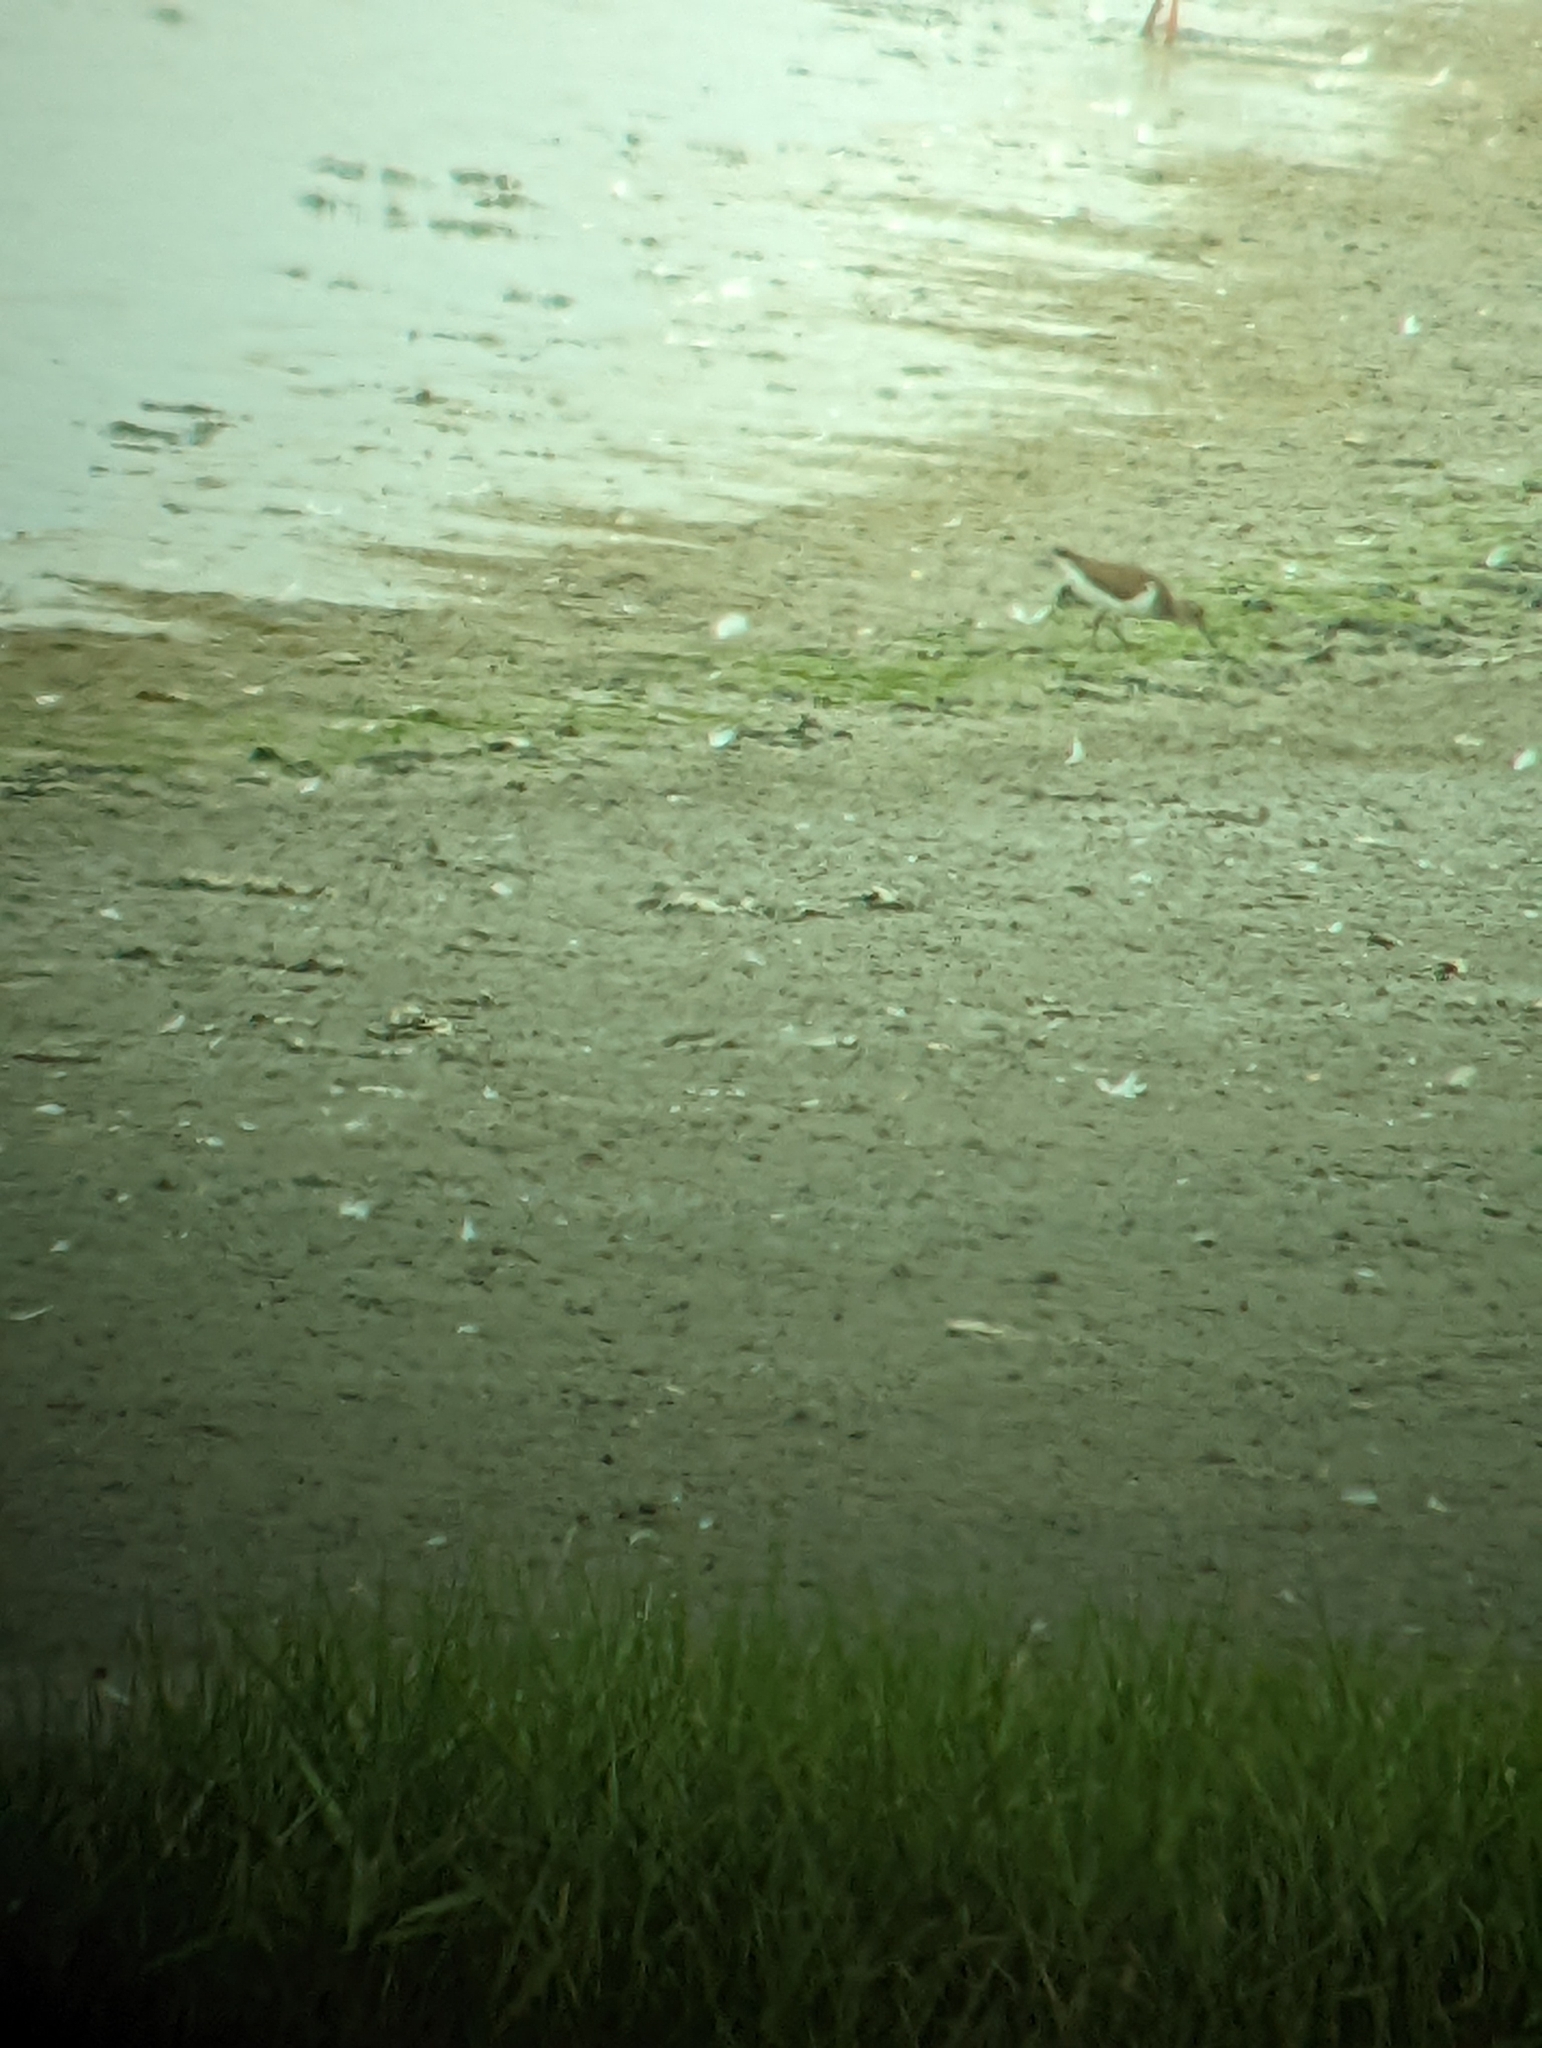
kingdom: Animalia
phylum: Chordata
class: Aves
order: Charadriiformes
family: Scolopacidae
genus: Actitis
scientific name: Actitis hypoleucos
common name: Common sandpiper
